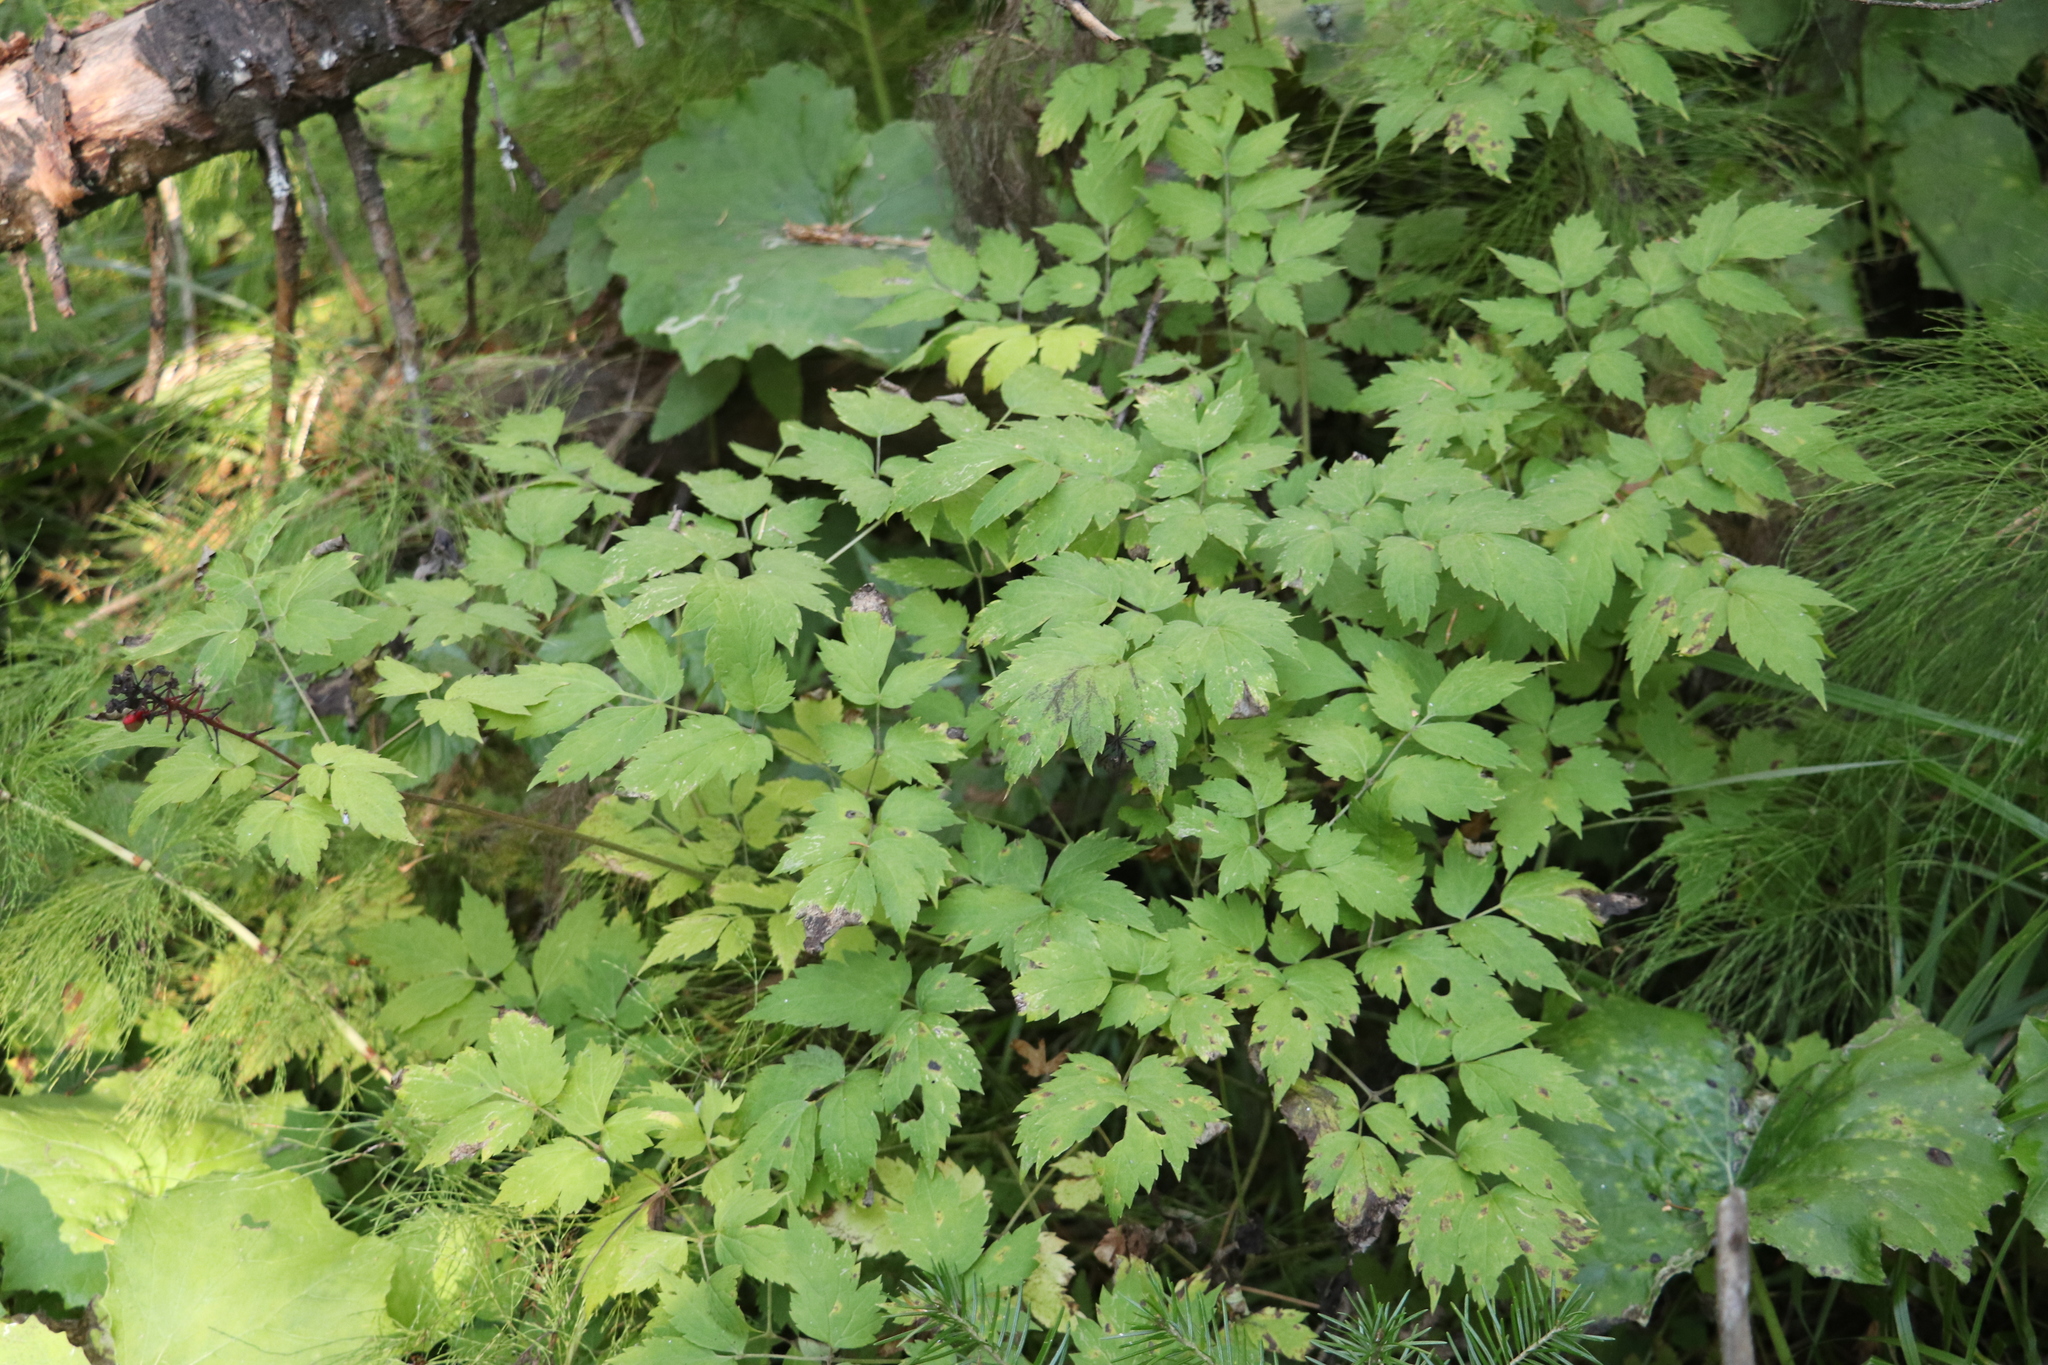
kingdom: Plantae
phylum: Tracheophyta
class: Magnoliopsida
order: Ranunculales
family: Ranunculaceae
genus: Actaea
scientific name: Actaea erythrocarpa
